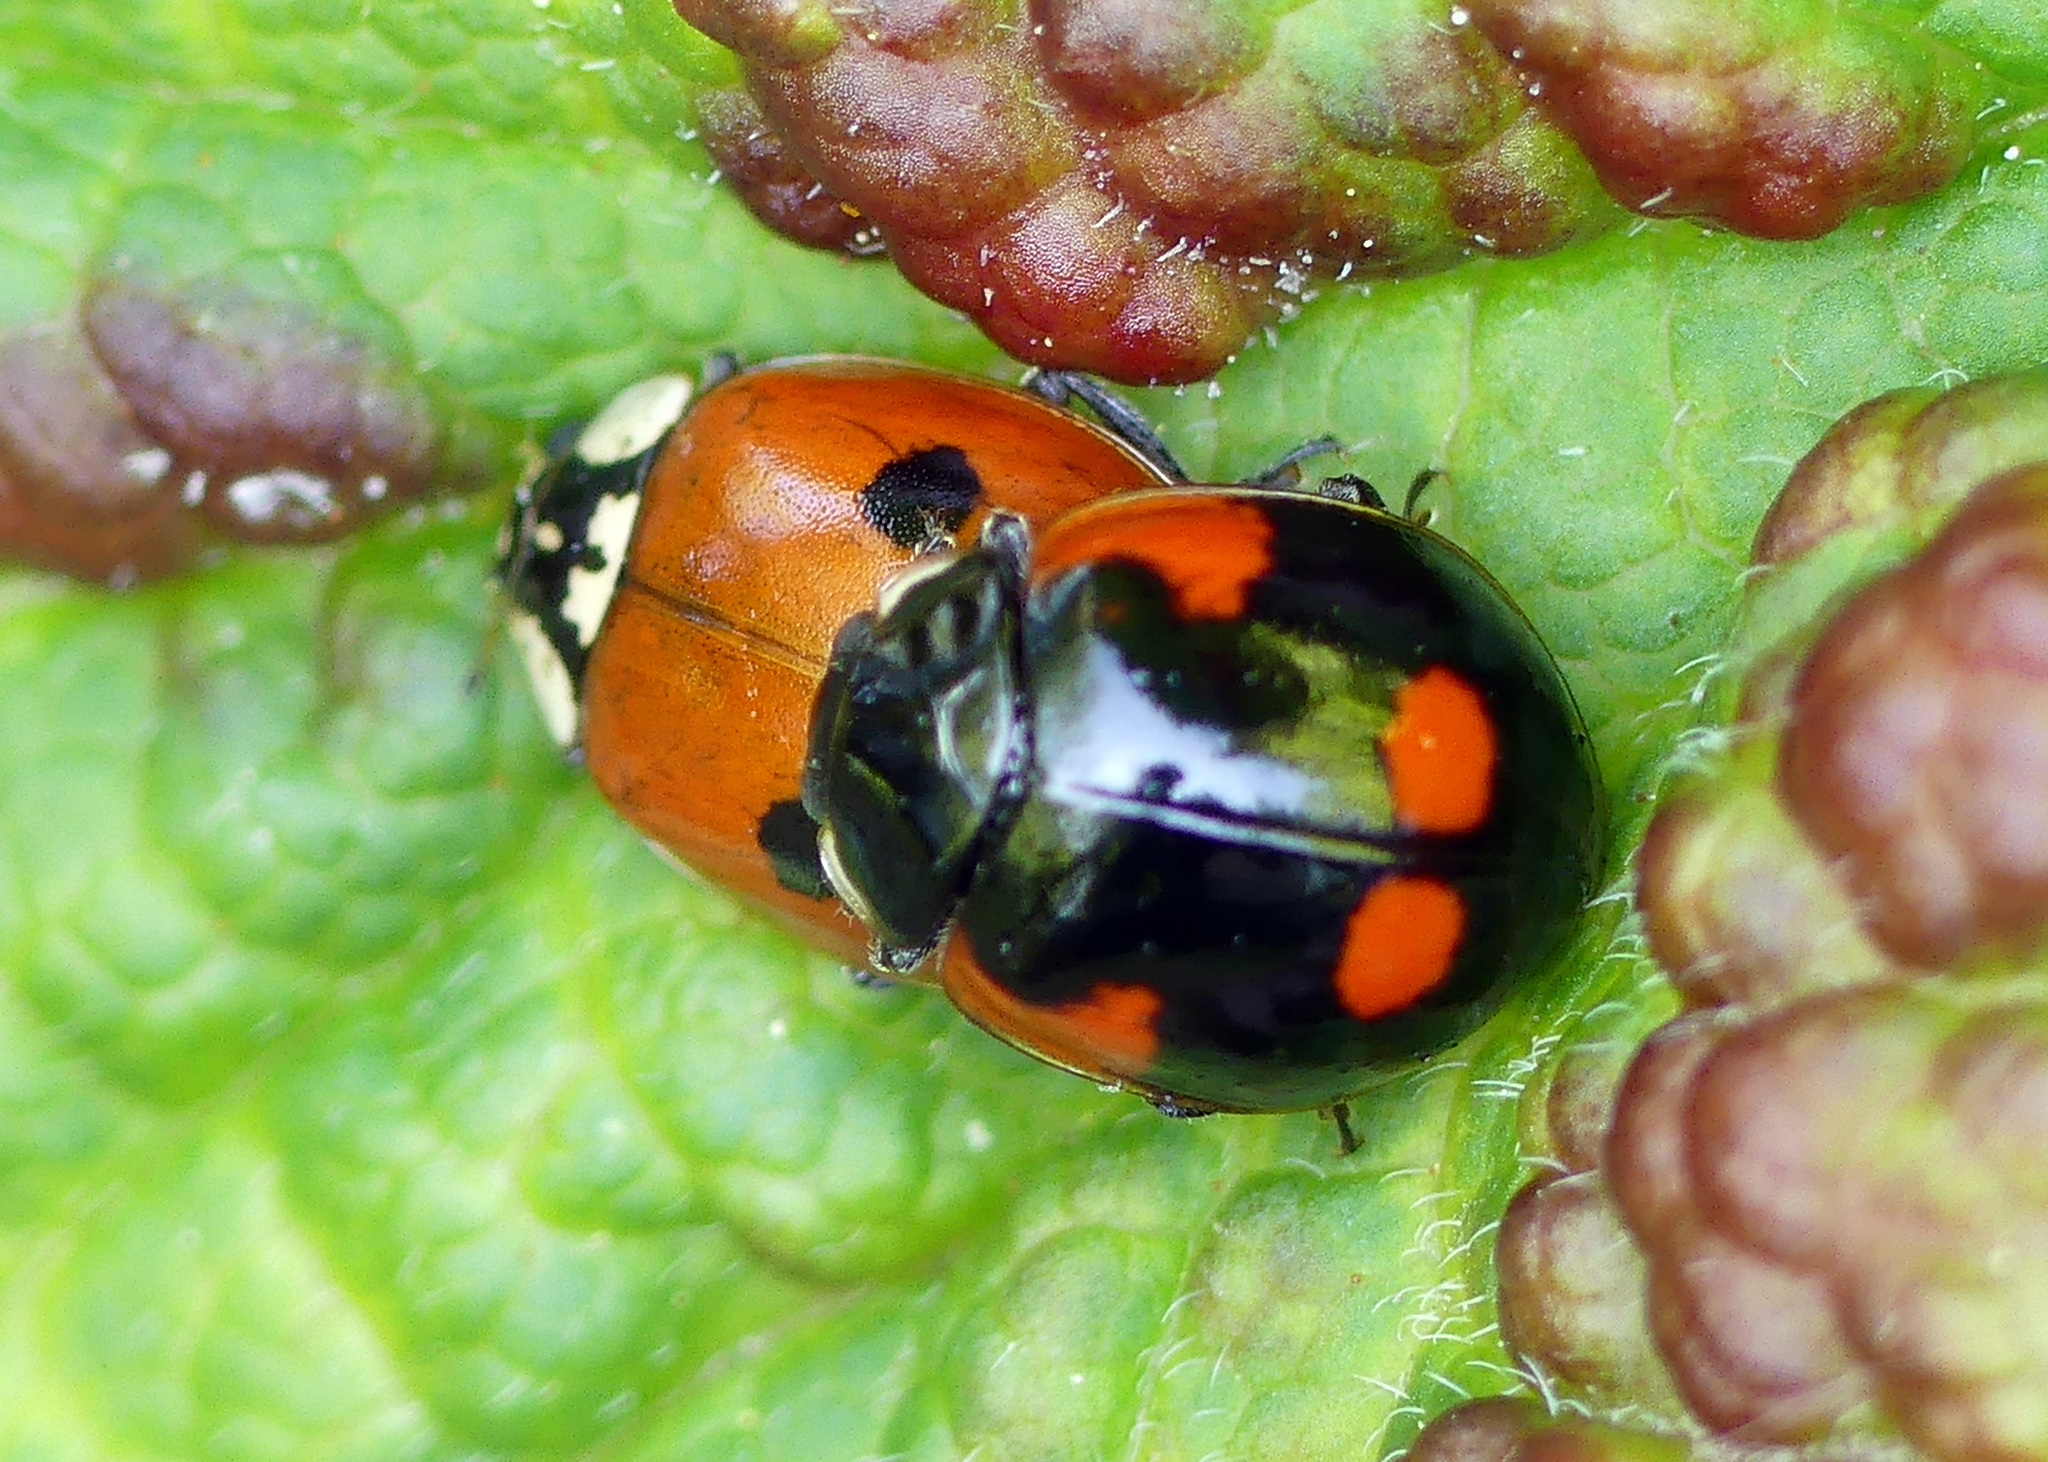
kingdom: Animalia
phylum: Arthropoda
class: Insecta
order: Coleoptera
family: Coccinellidae
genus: Adalia
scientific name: Adalia bipunctata
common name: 2-spot ladybird
